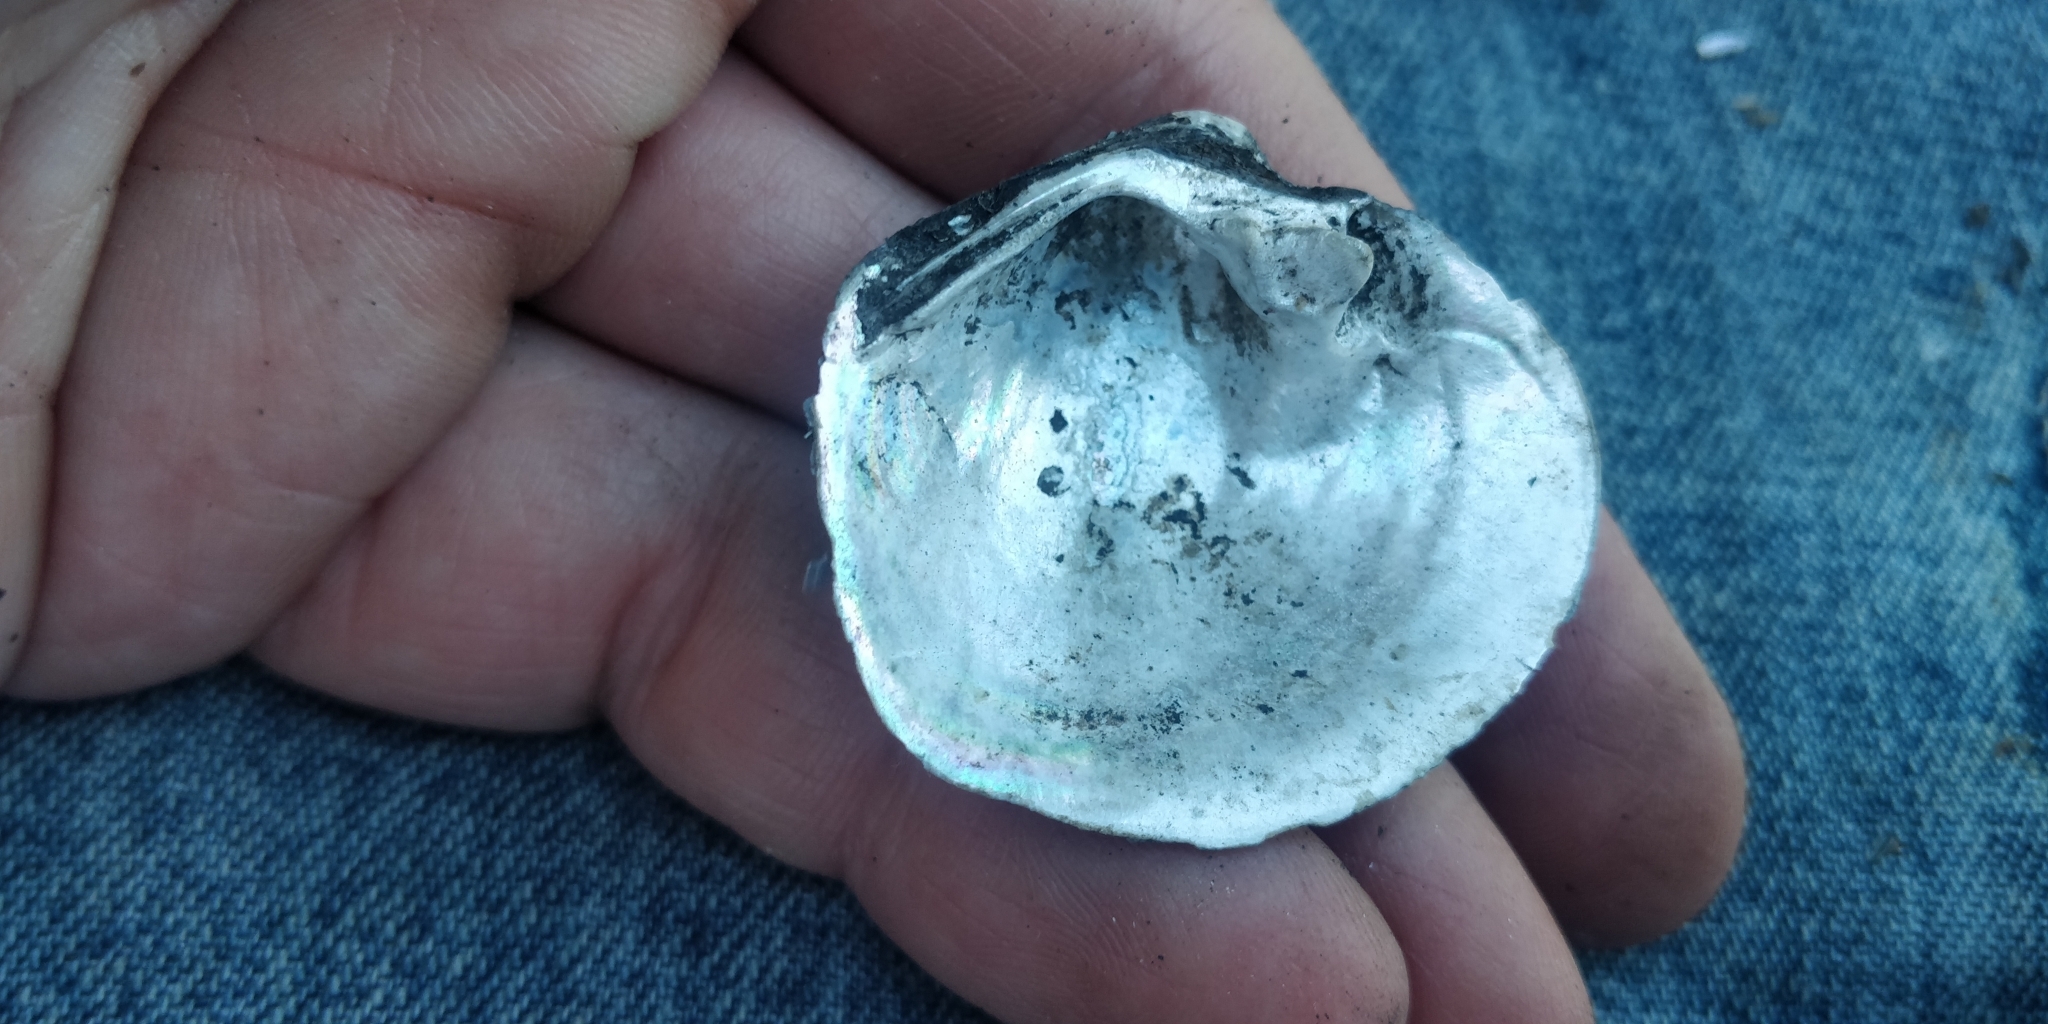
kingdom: Animalia
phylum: Mollusca
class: Bivalvia
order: Unionida
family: Unionidae
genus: Cyclonaias
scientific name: Cyclonaias pustulosa
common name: Pimpleback
